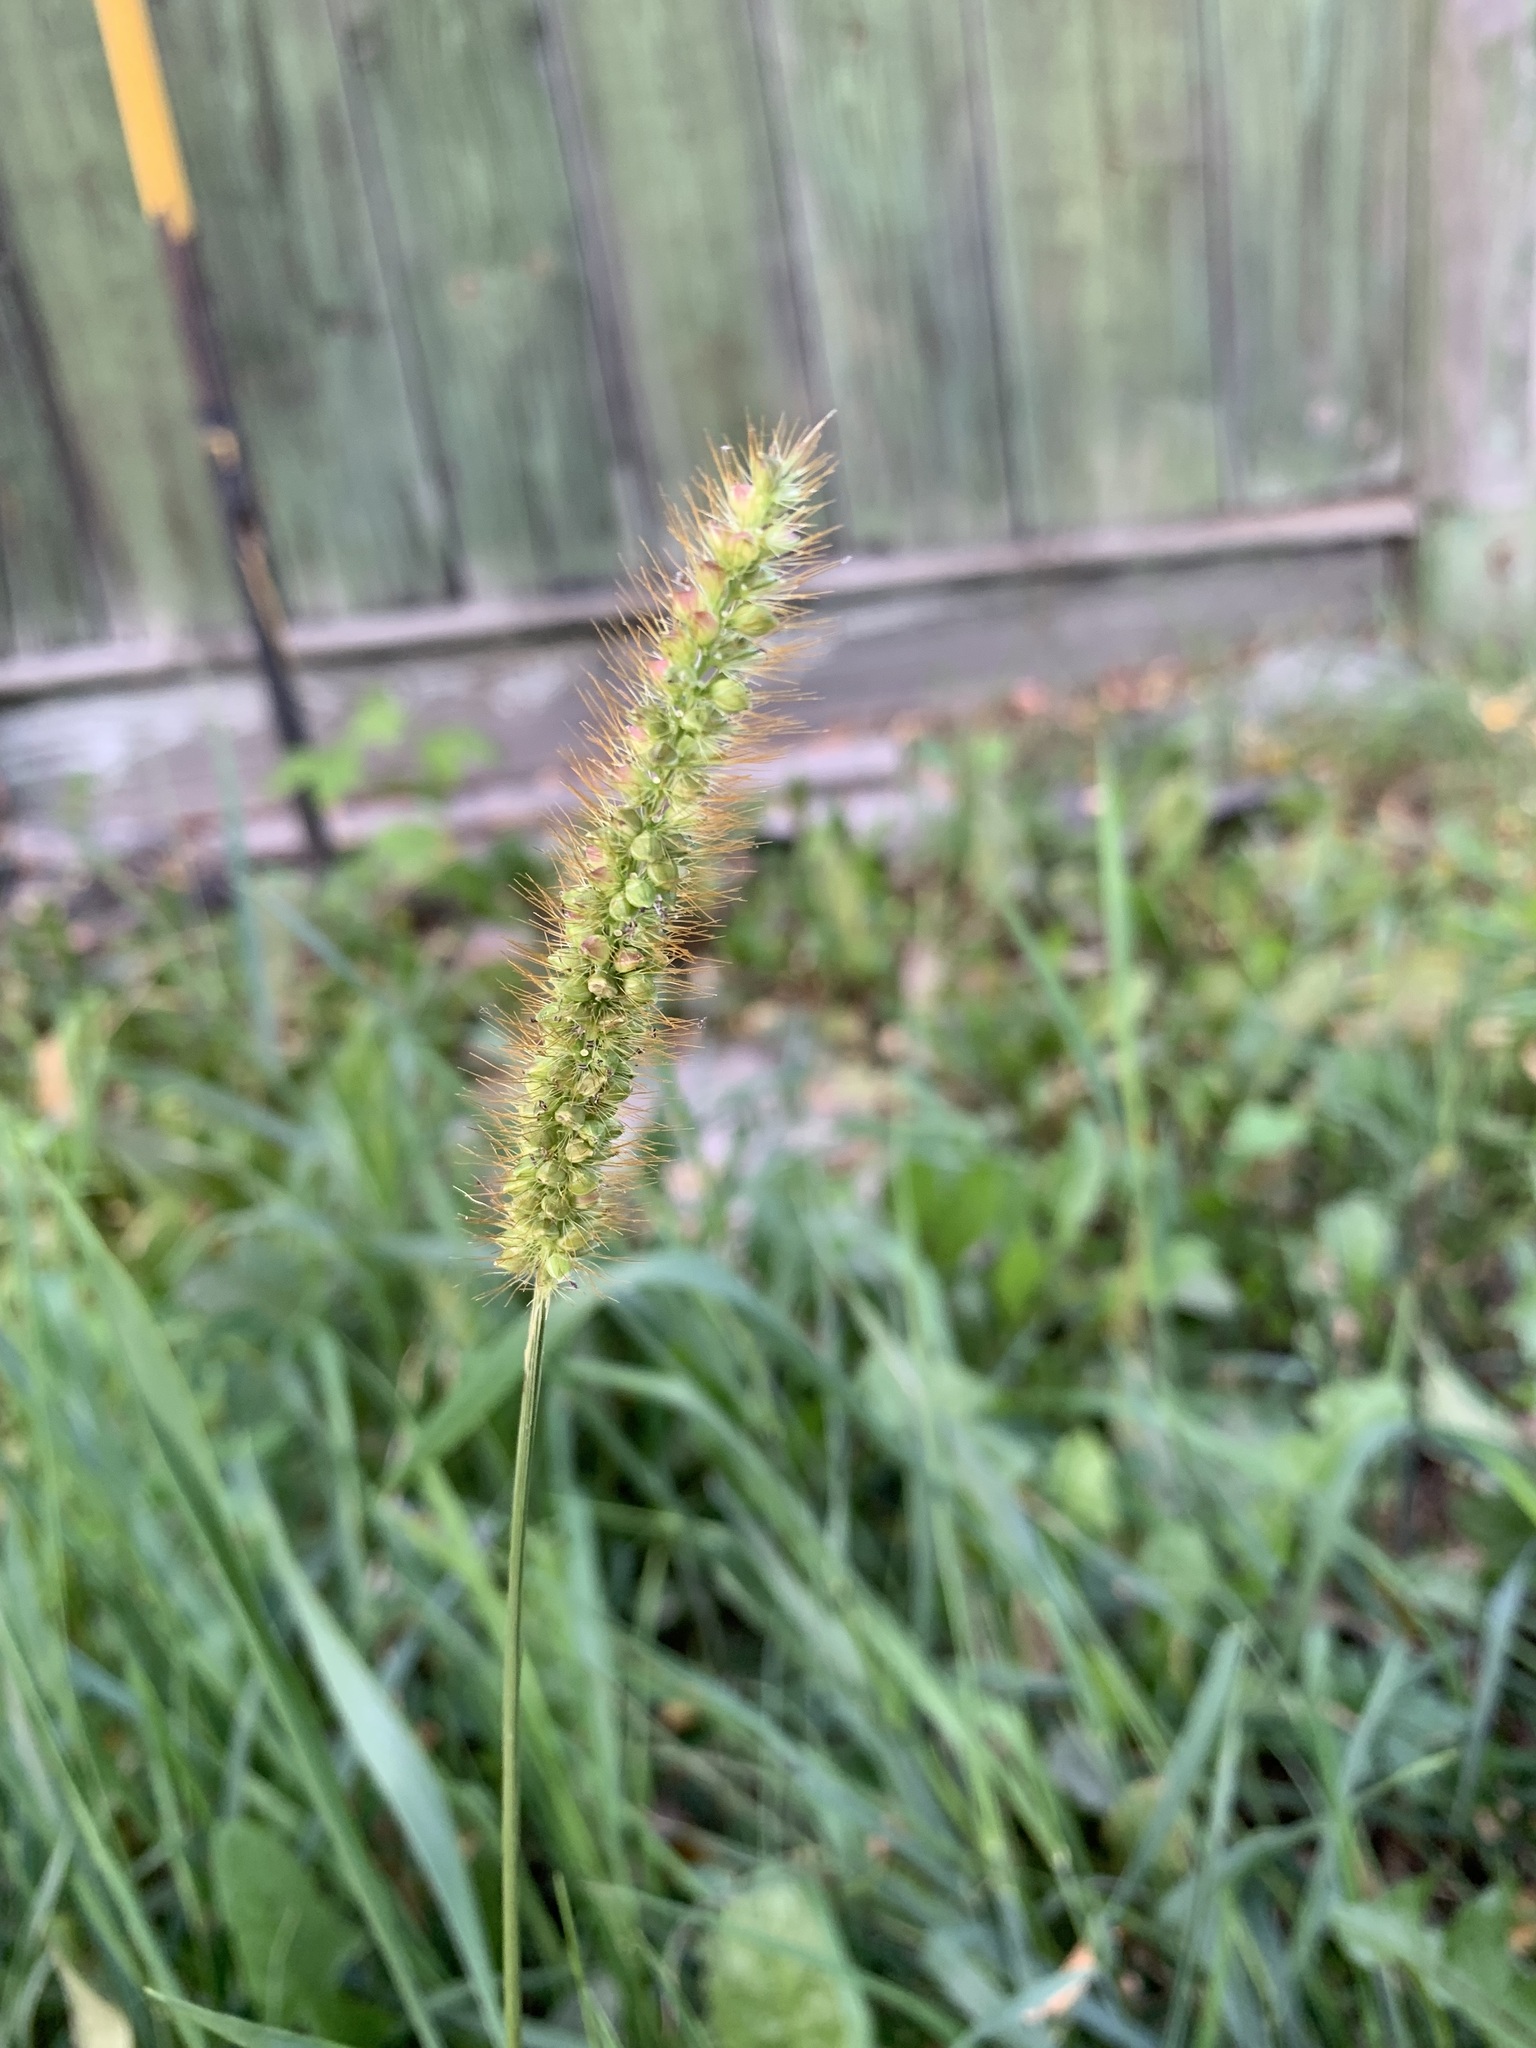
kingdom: Plantae
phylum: Tracheophyta
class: Liliopsida
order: Poales
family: Poaceae
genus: Setaria
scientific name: Setaria pumila
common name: Yellow bristle-grass
